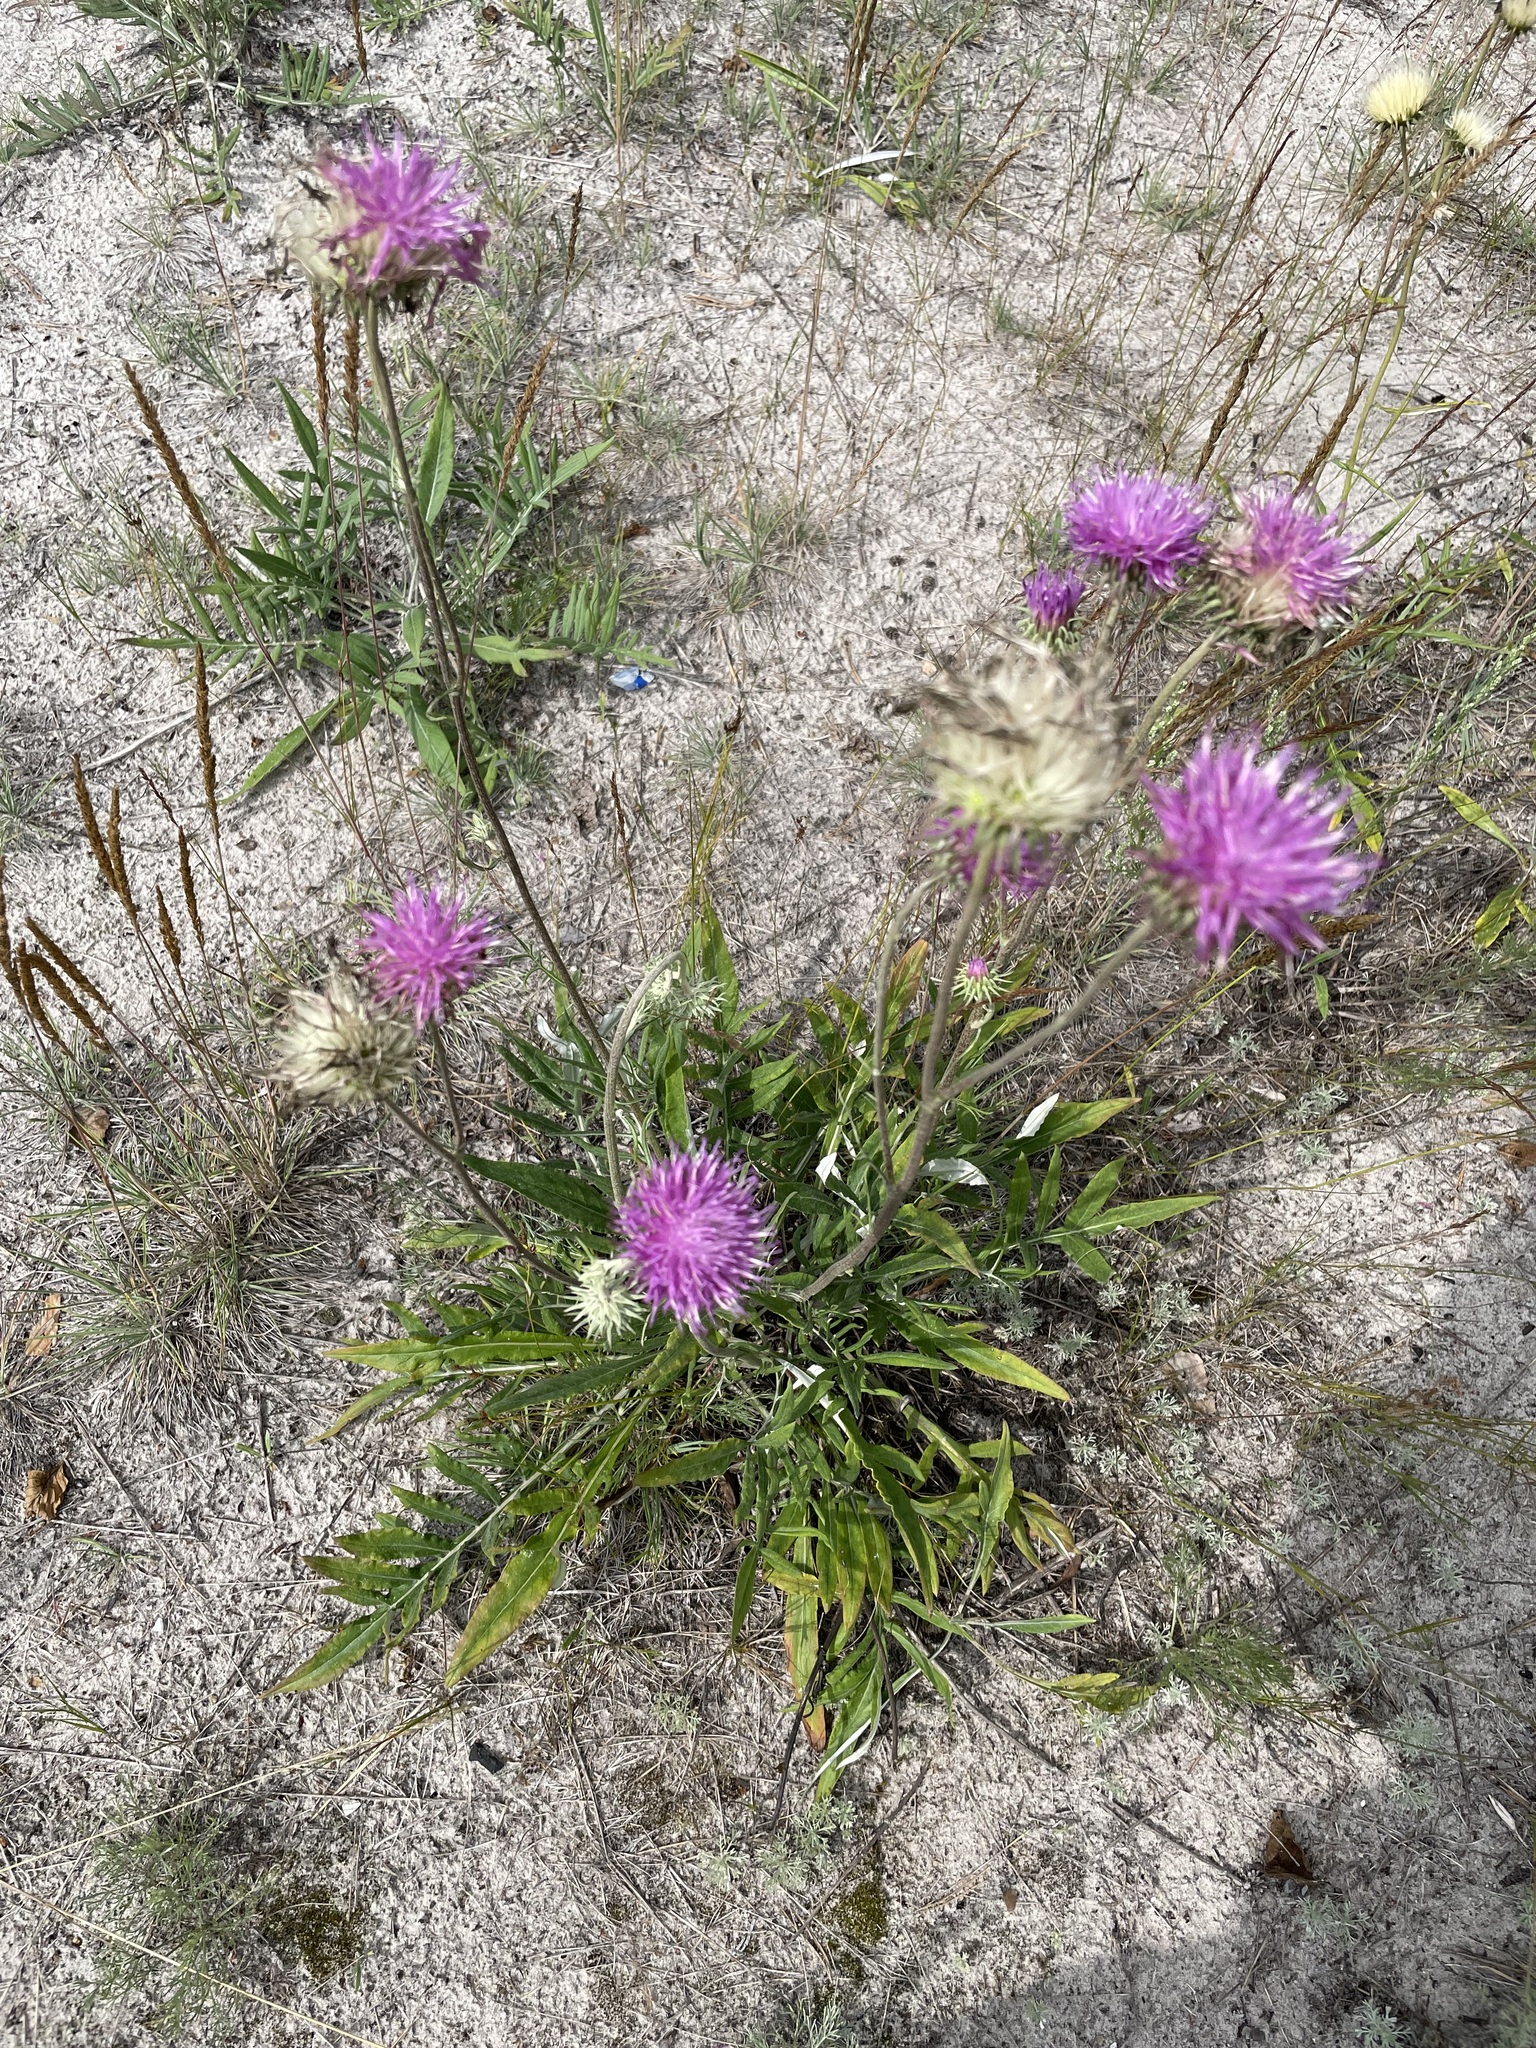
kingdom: Plantae
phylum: Tracheophyta
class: Magnoliopsida
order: Asterales
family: Asteraceae
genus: Jurinea
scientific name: Jurinea cyanoides
